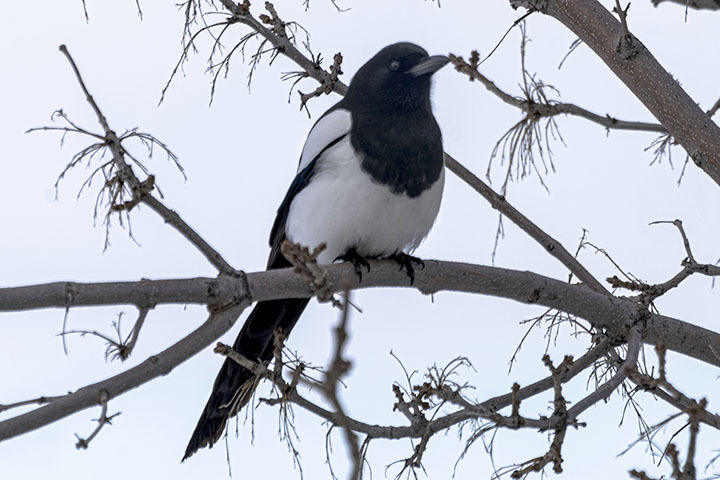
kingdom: Animalia
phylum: Chordata
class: Aves
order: Passeriformes
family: Corvidae
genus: Pica
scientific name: Pica hudsonia
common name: Black-billed magpie
